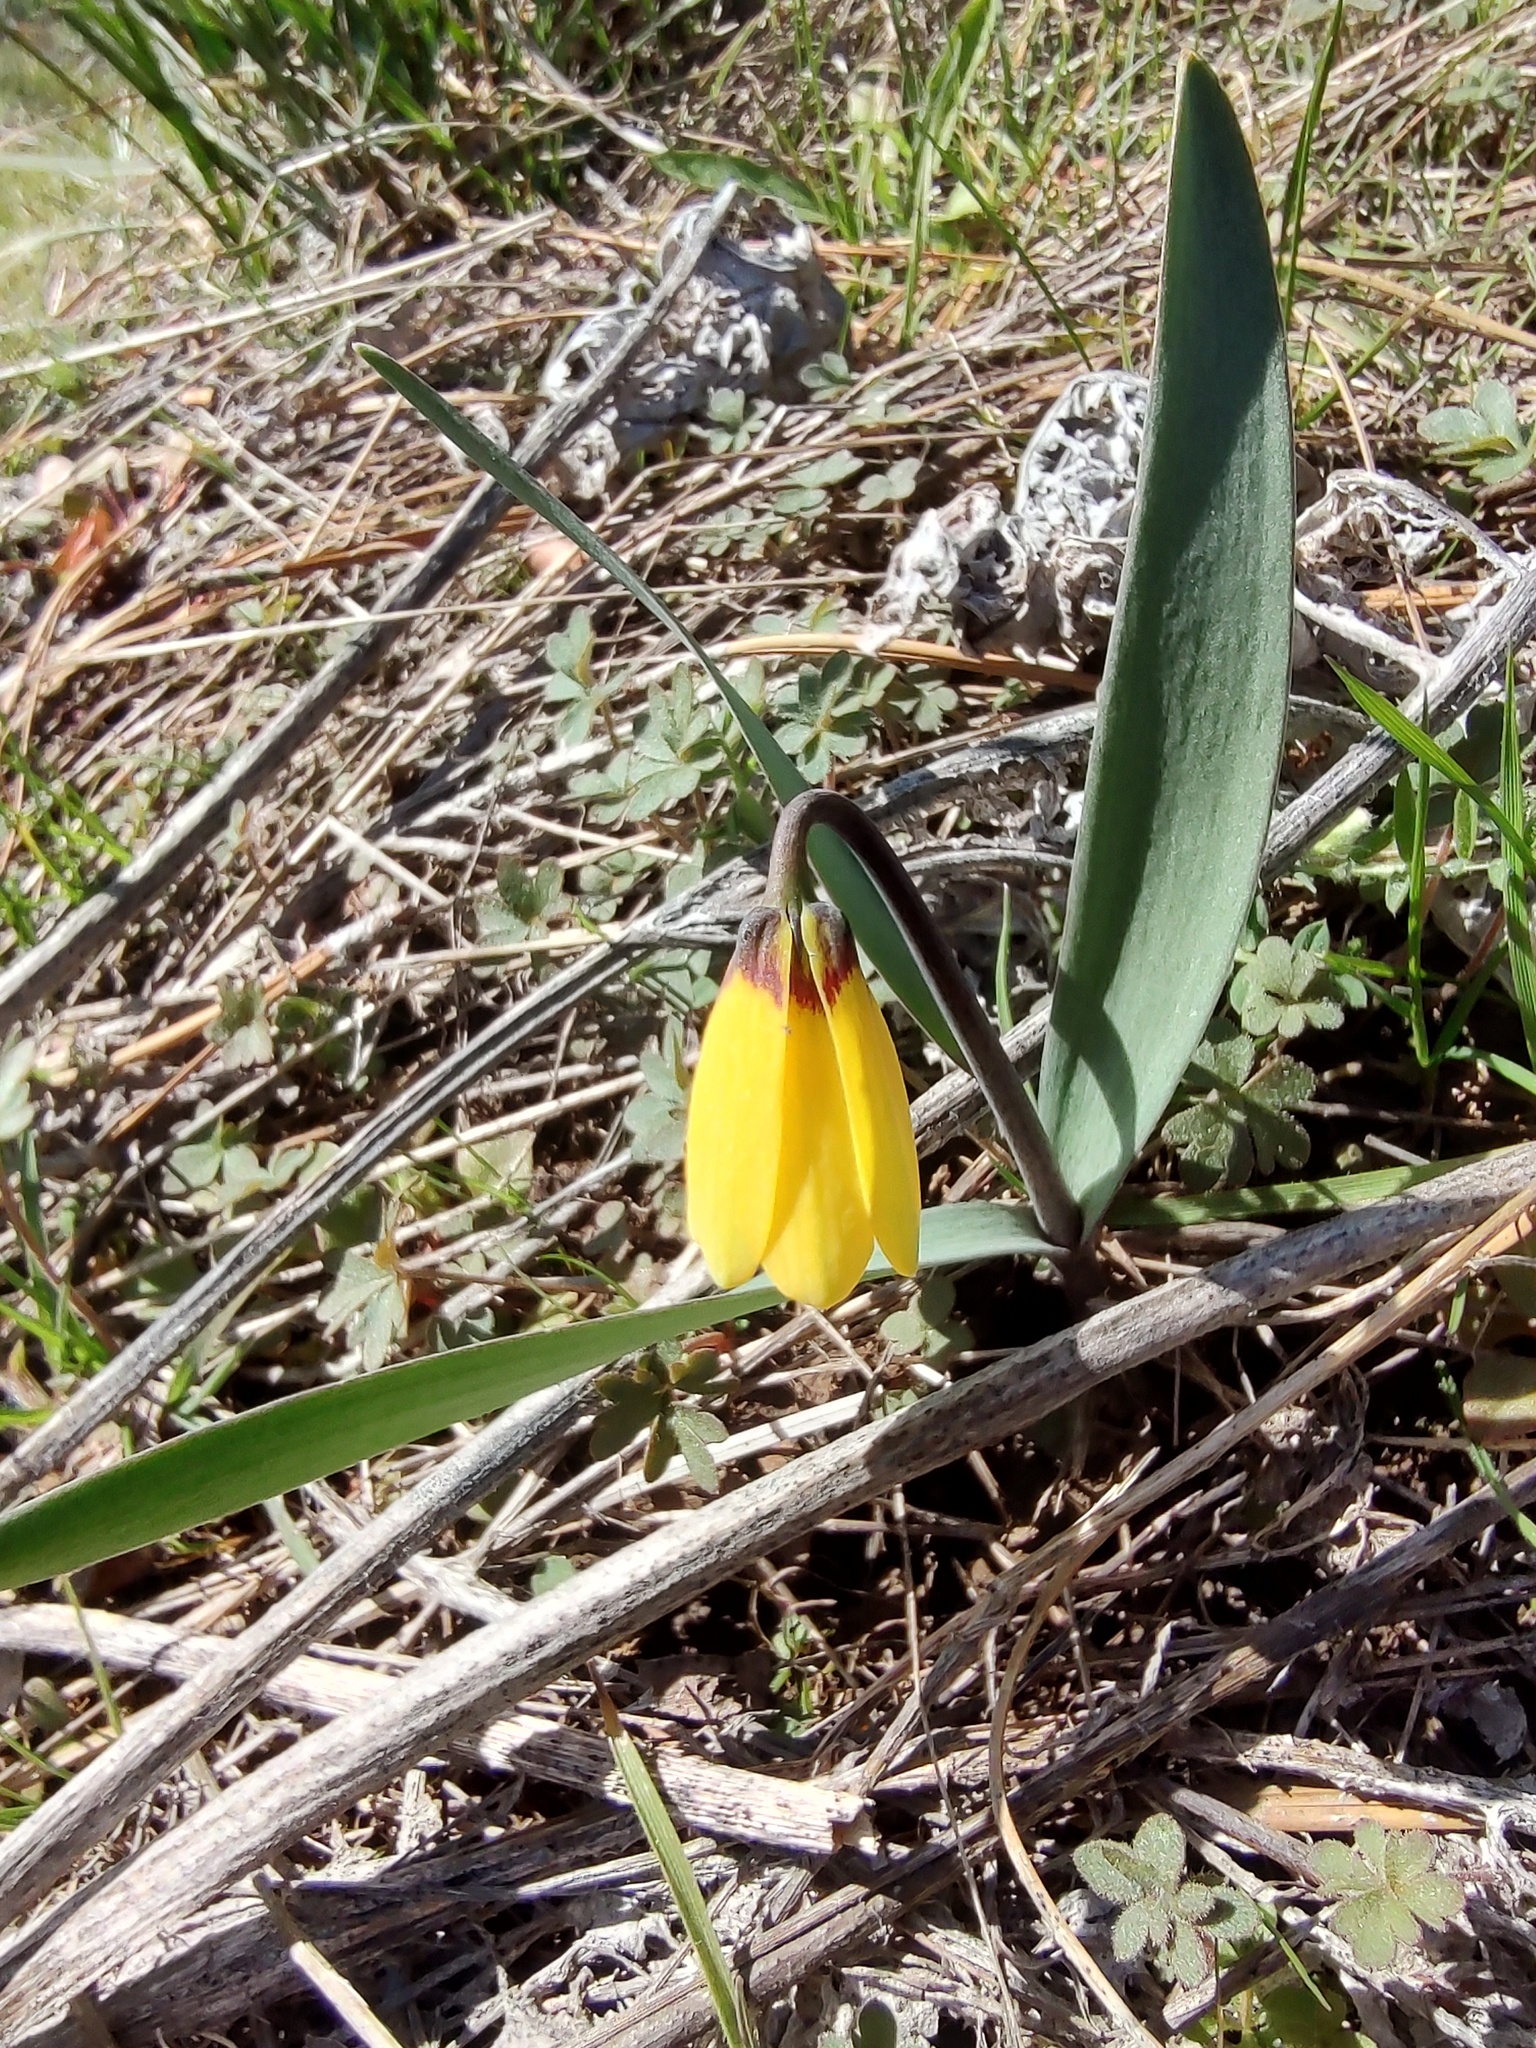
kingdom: Plantae
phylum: Tracheophyta
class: Liliopsida
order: Liliales
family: Liliaceae
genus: Fritillaria
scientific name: Fritillaria pudica
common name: Yellow fritillary
